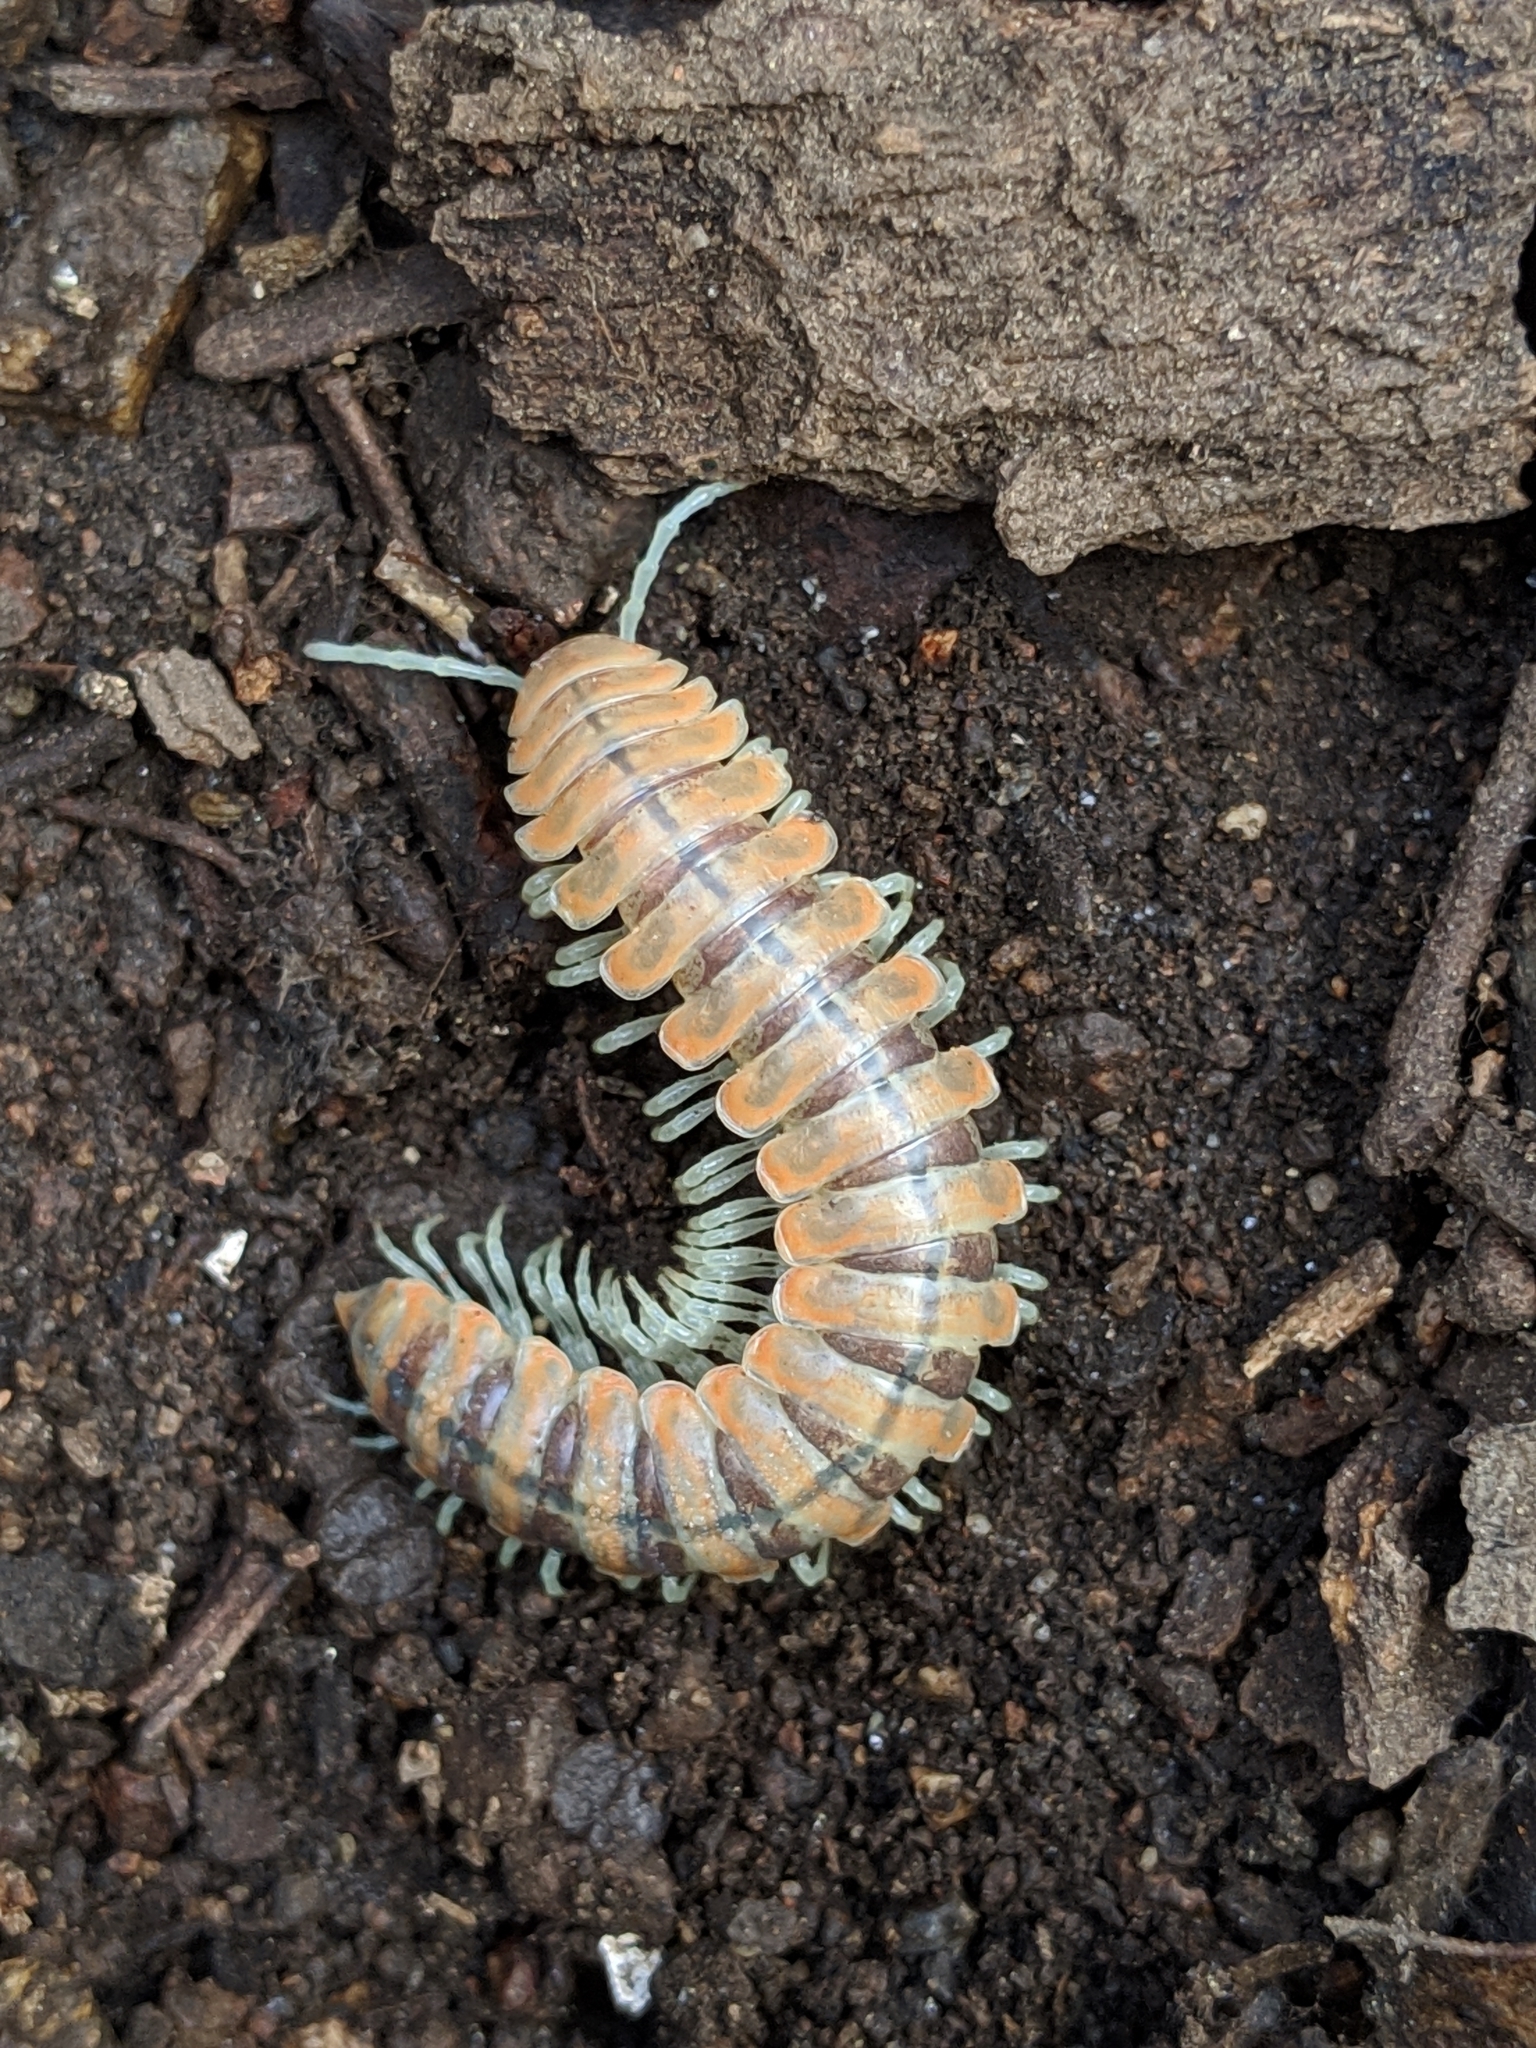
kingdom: Animalia
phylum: Arthropoda
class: Diplopoda
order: Polydesmida
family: Xystodesmidae
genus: Motyxia
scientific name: Motyxia monica
